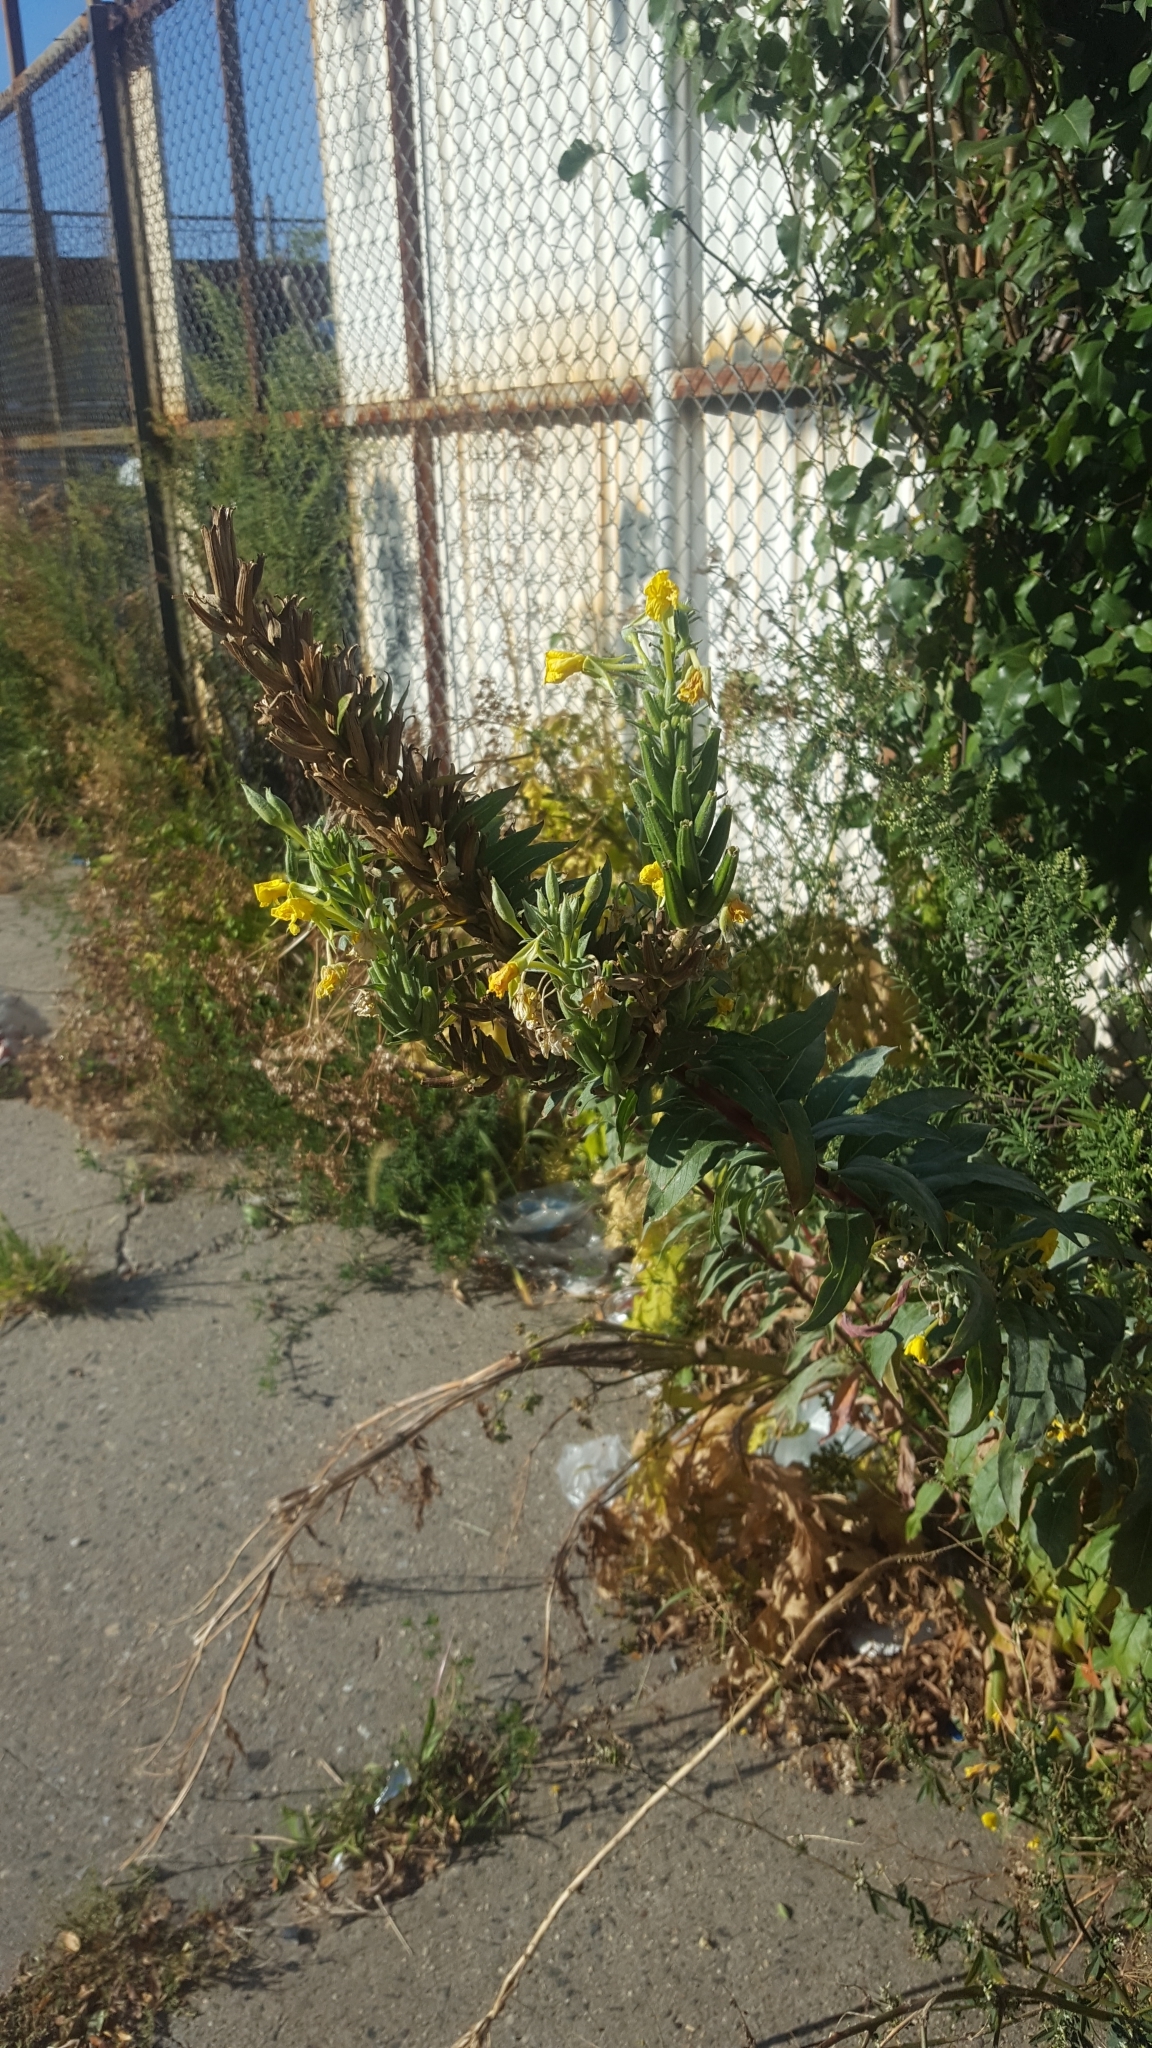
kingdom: Plantae
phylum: Tracheophyta
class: Magnoliopsida
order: Myrtales
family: Onagraceae
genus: Oenothera
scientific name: Oenothera biennis
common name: Common evening-primrose
